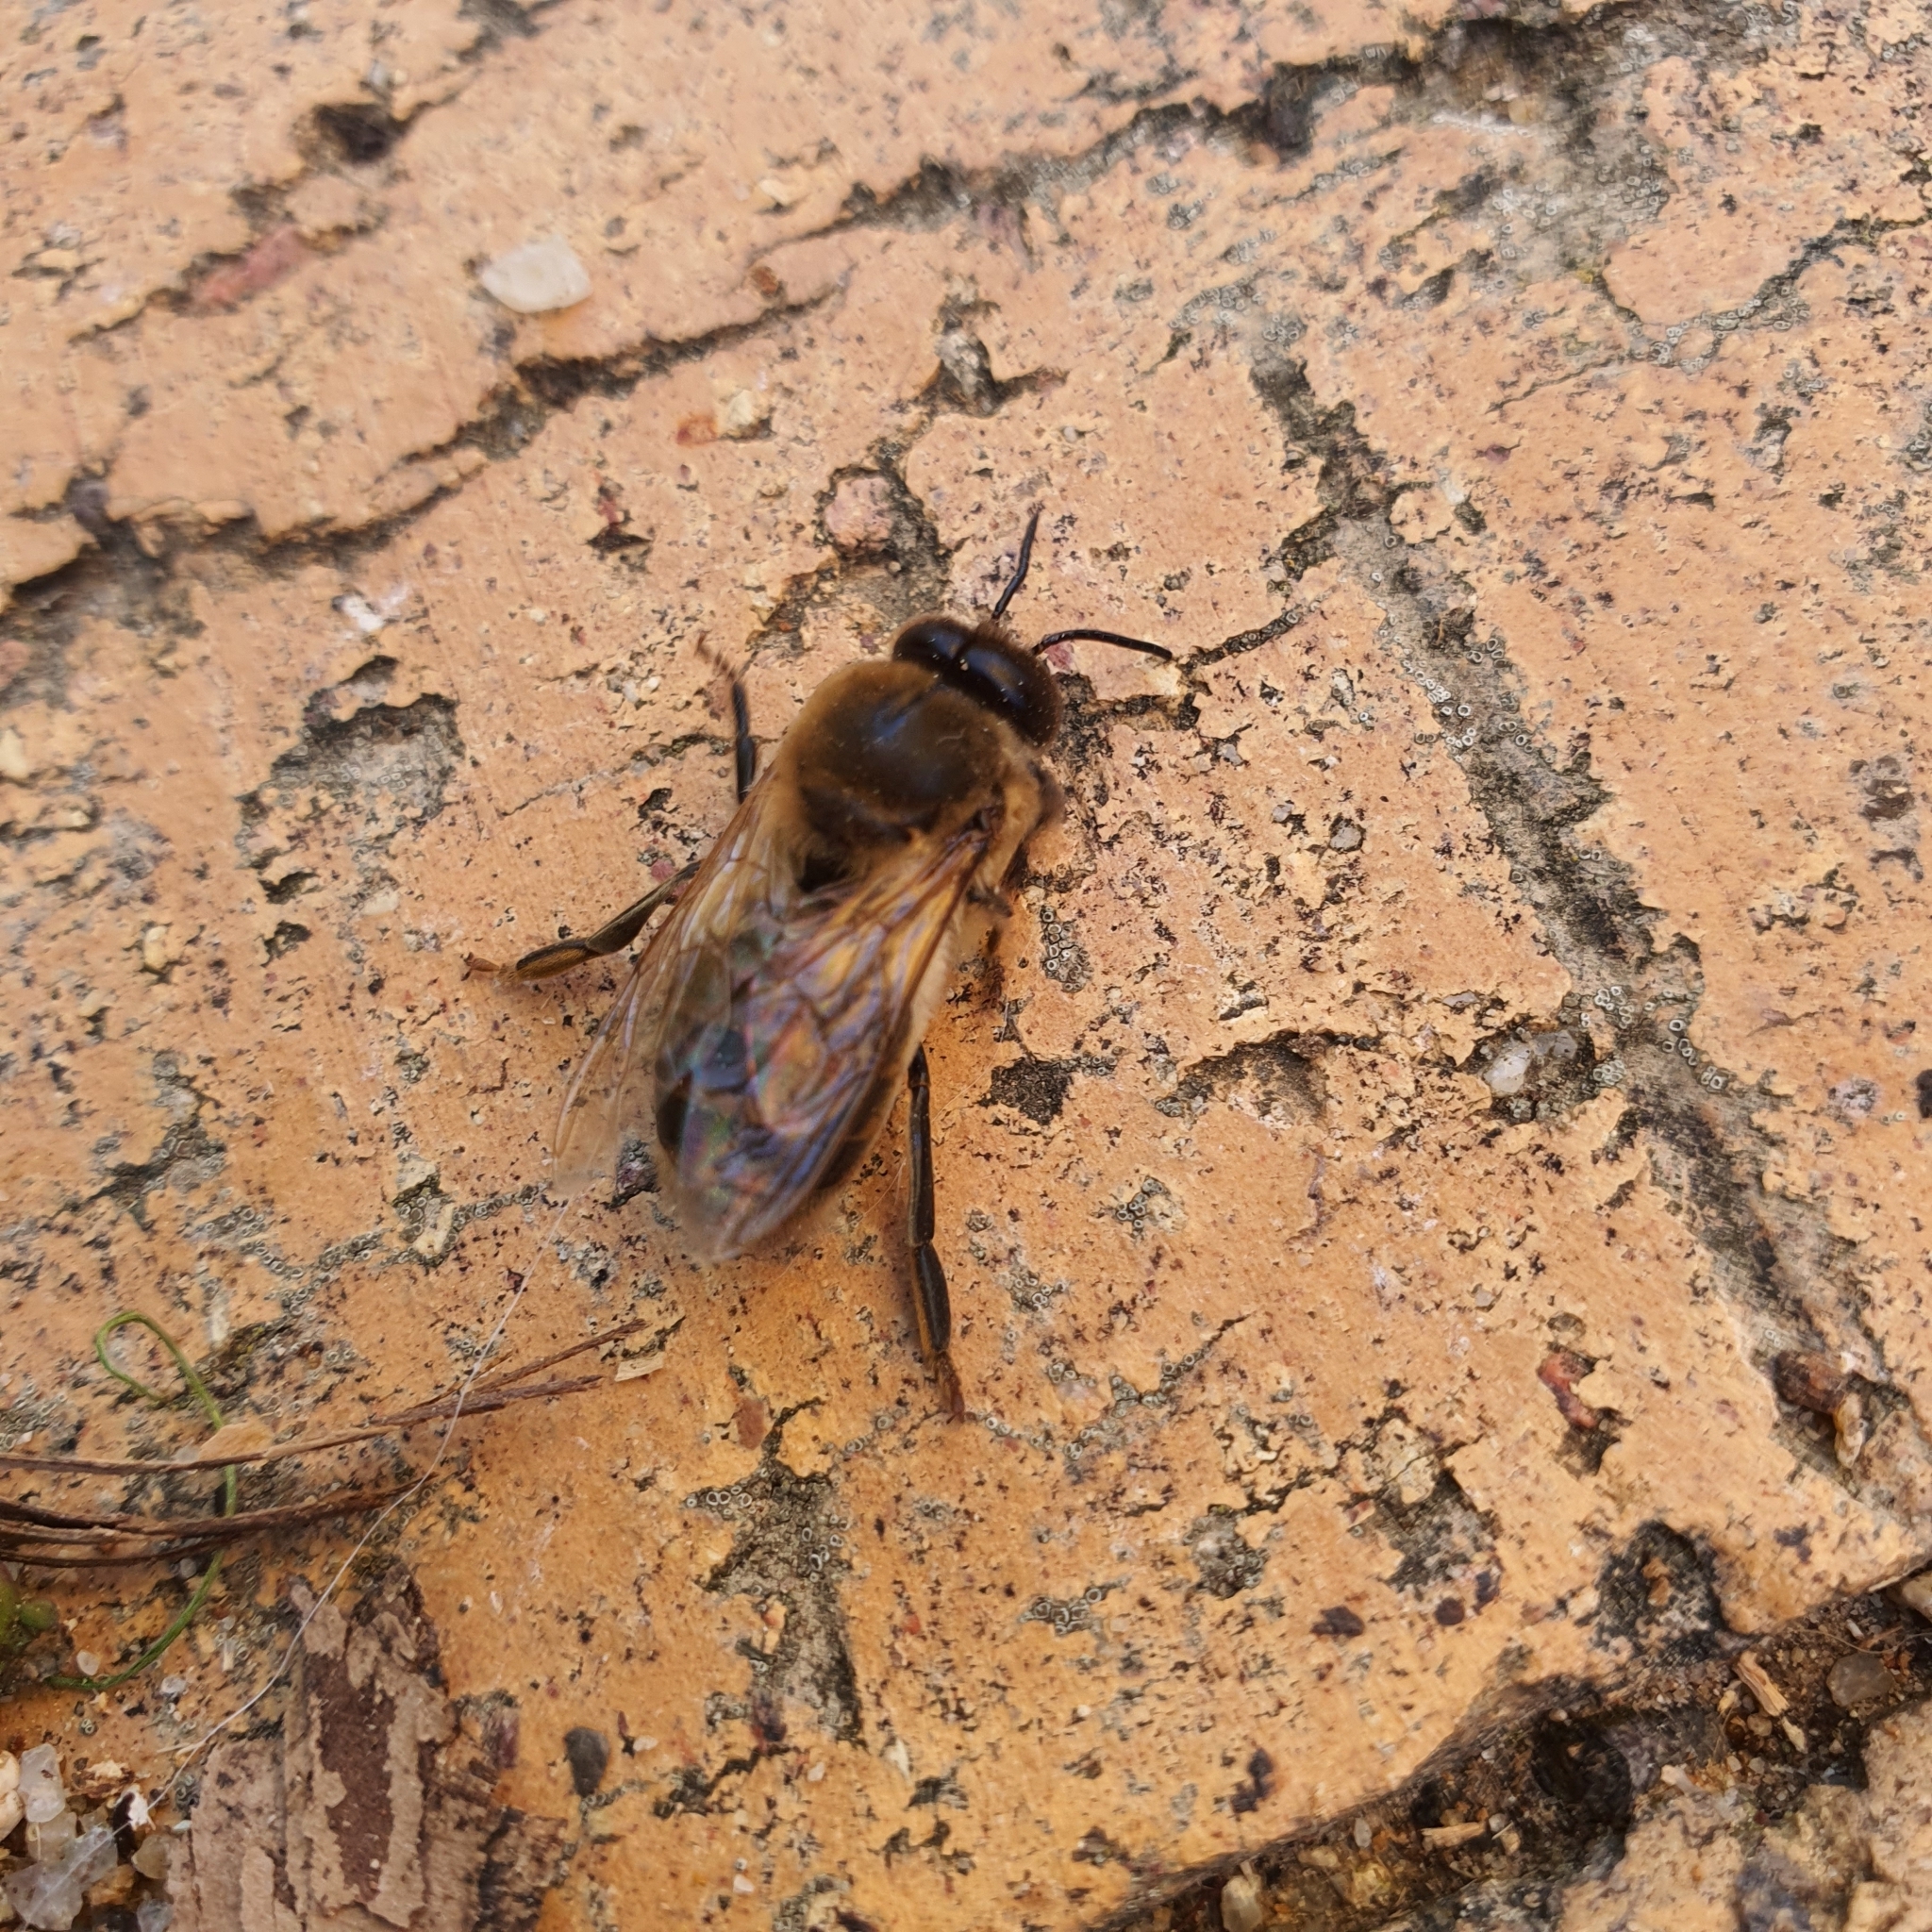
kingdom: Animalia
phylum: Arthropoda
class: Insecta
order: Hymenoptera
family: Apidae
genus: Apis
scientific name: Apis mellifera
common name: Honey bee
